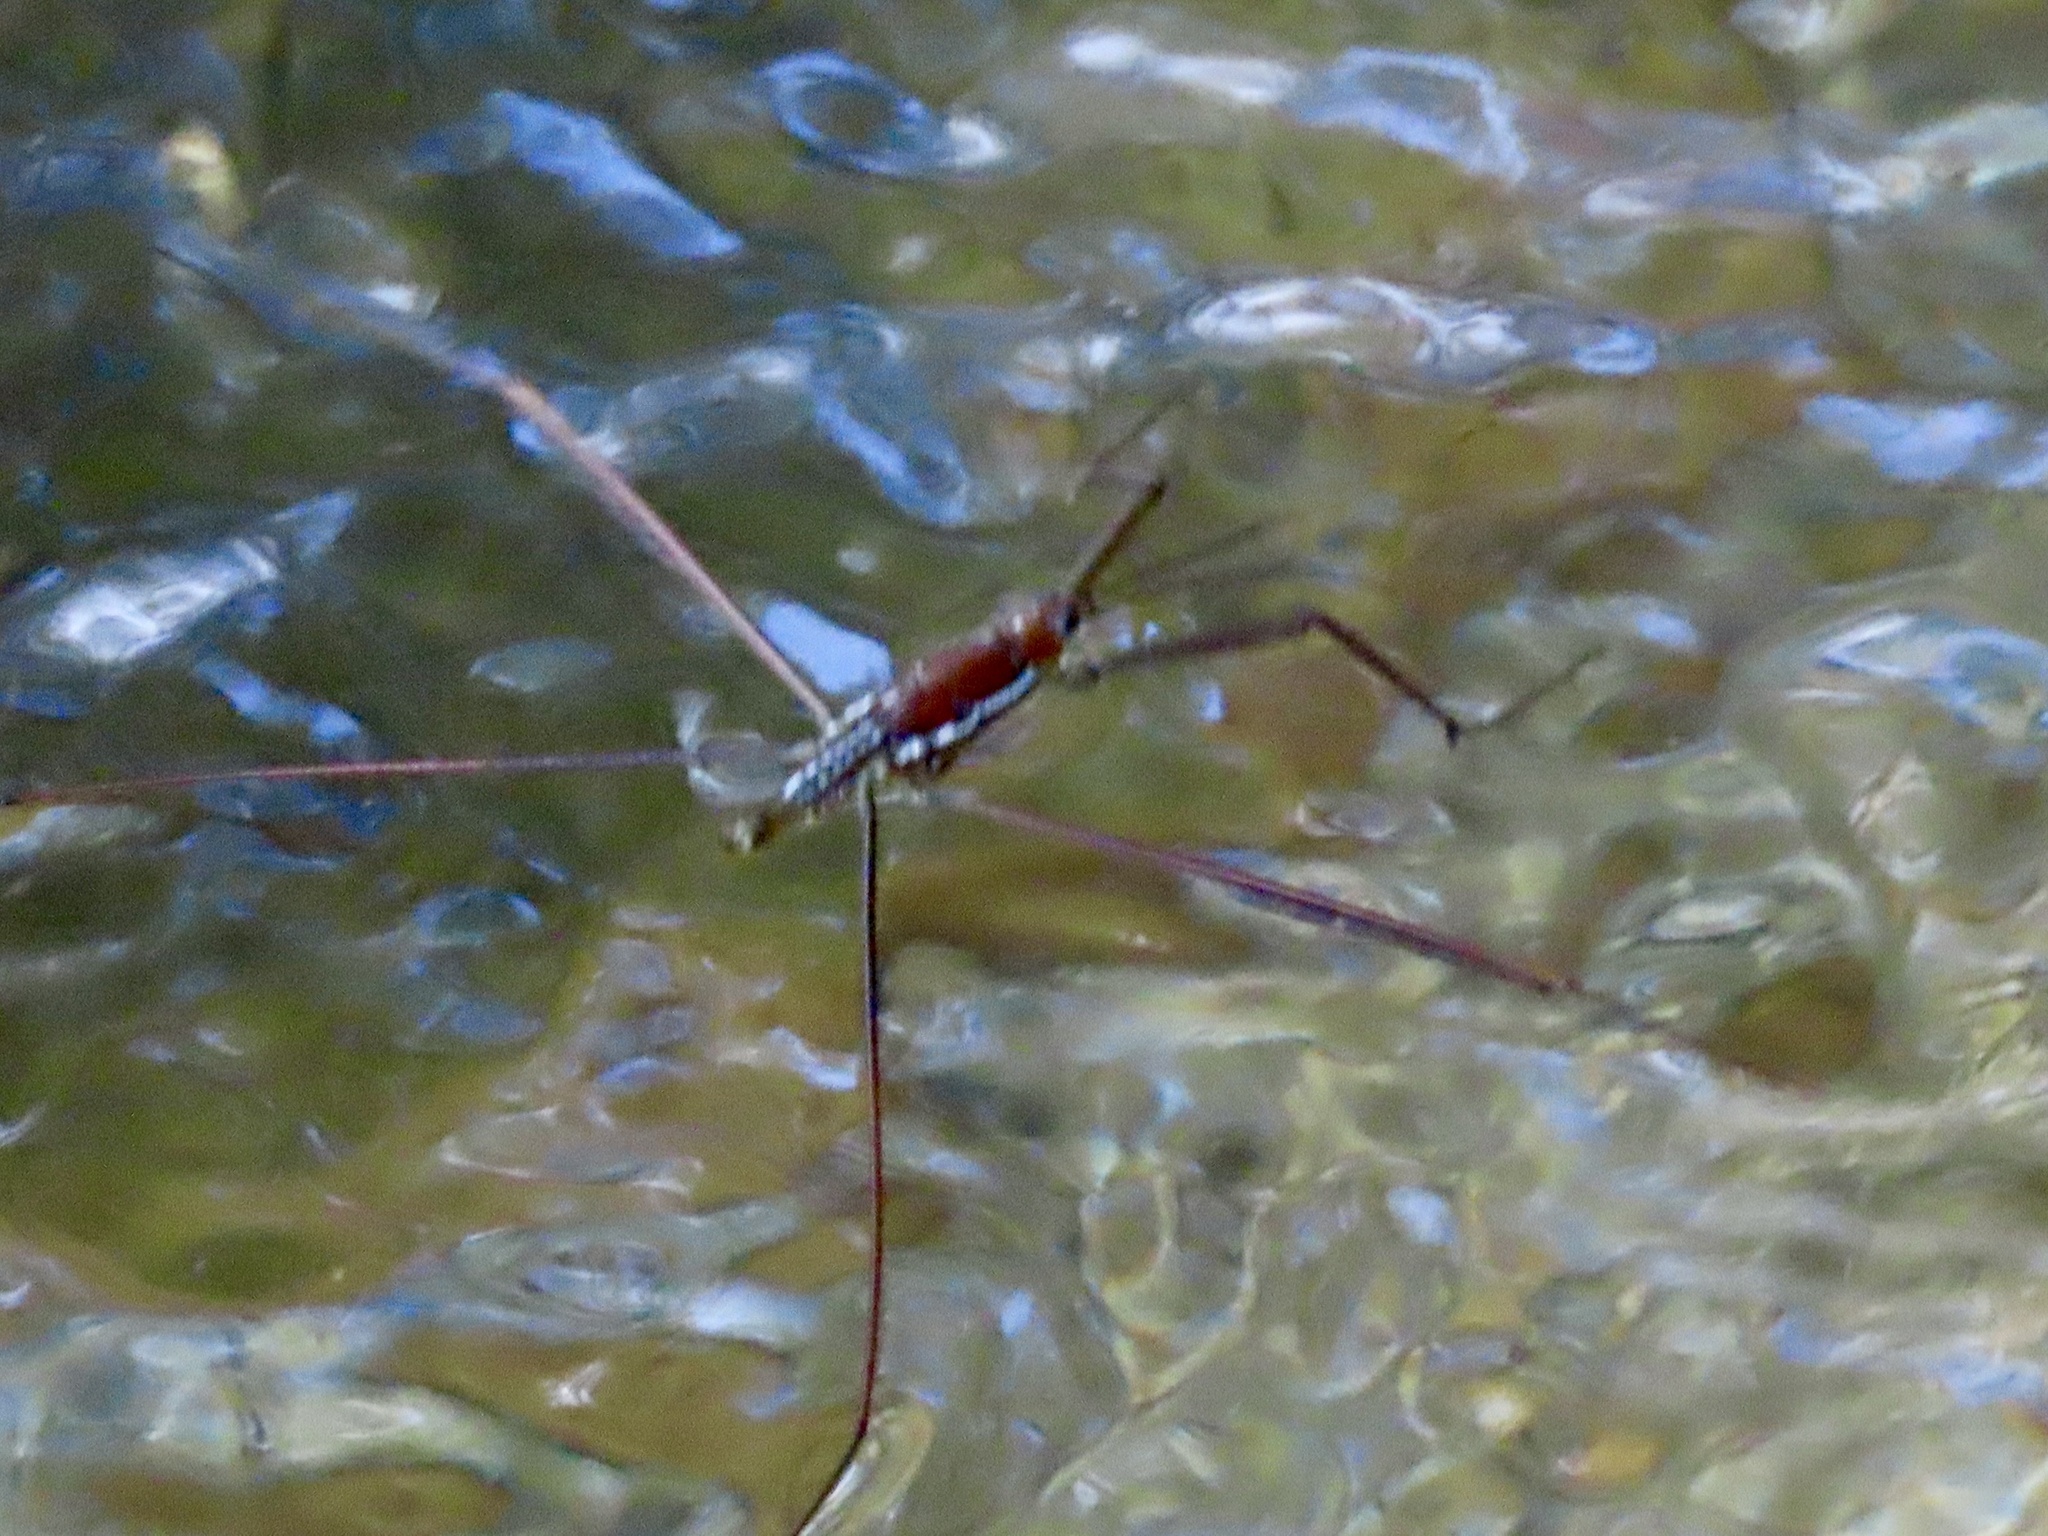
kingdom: Animalia
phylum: Arthropoda
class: Insecta
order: Hemiptera
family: Gerridae
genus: Ptilomera
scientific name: Ptilomera tigrina
